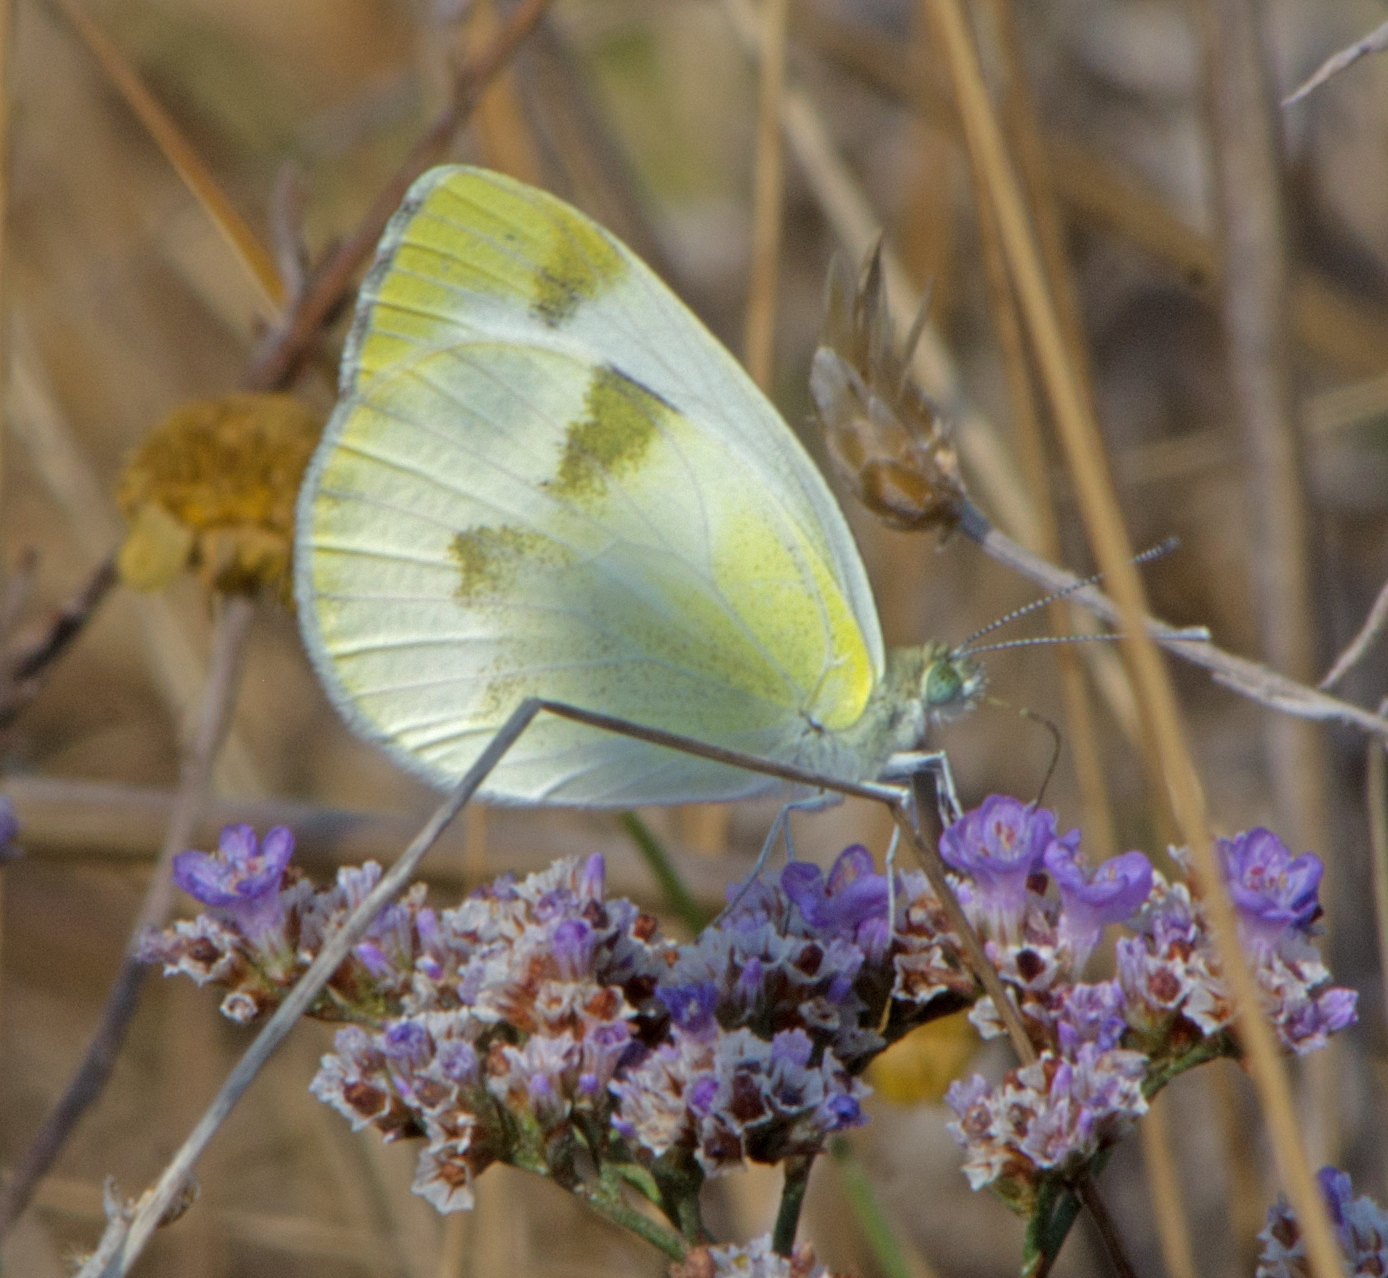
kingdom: Animalia
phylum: Arthropoda
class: Insecta
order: Lepidoptera
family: Pieridae
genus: Pieris
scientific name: Pieris krueperi
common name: Krueper's small white
